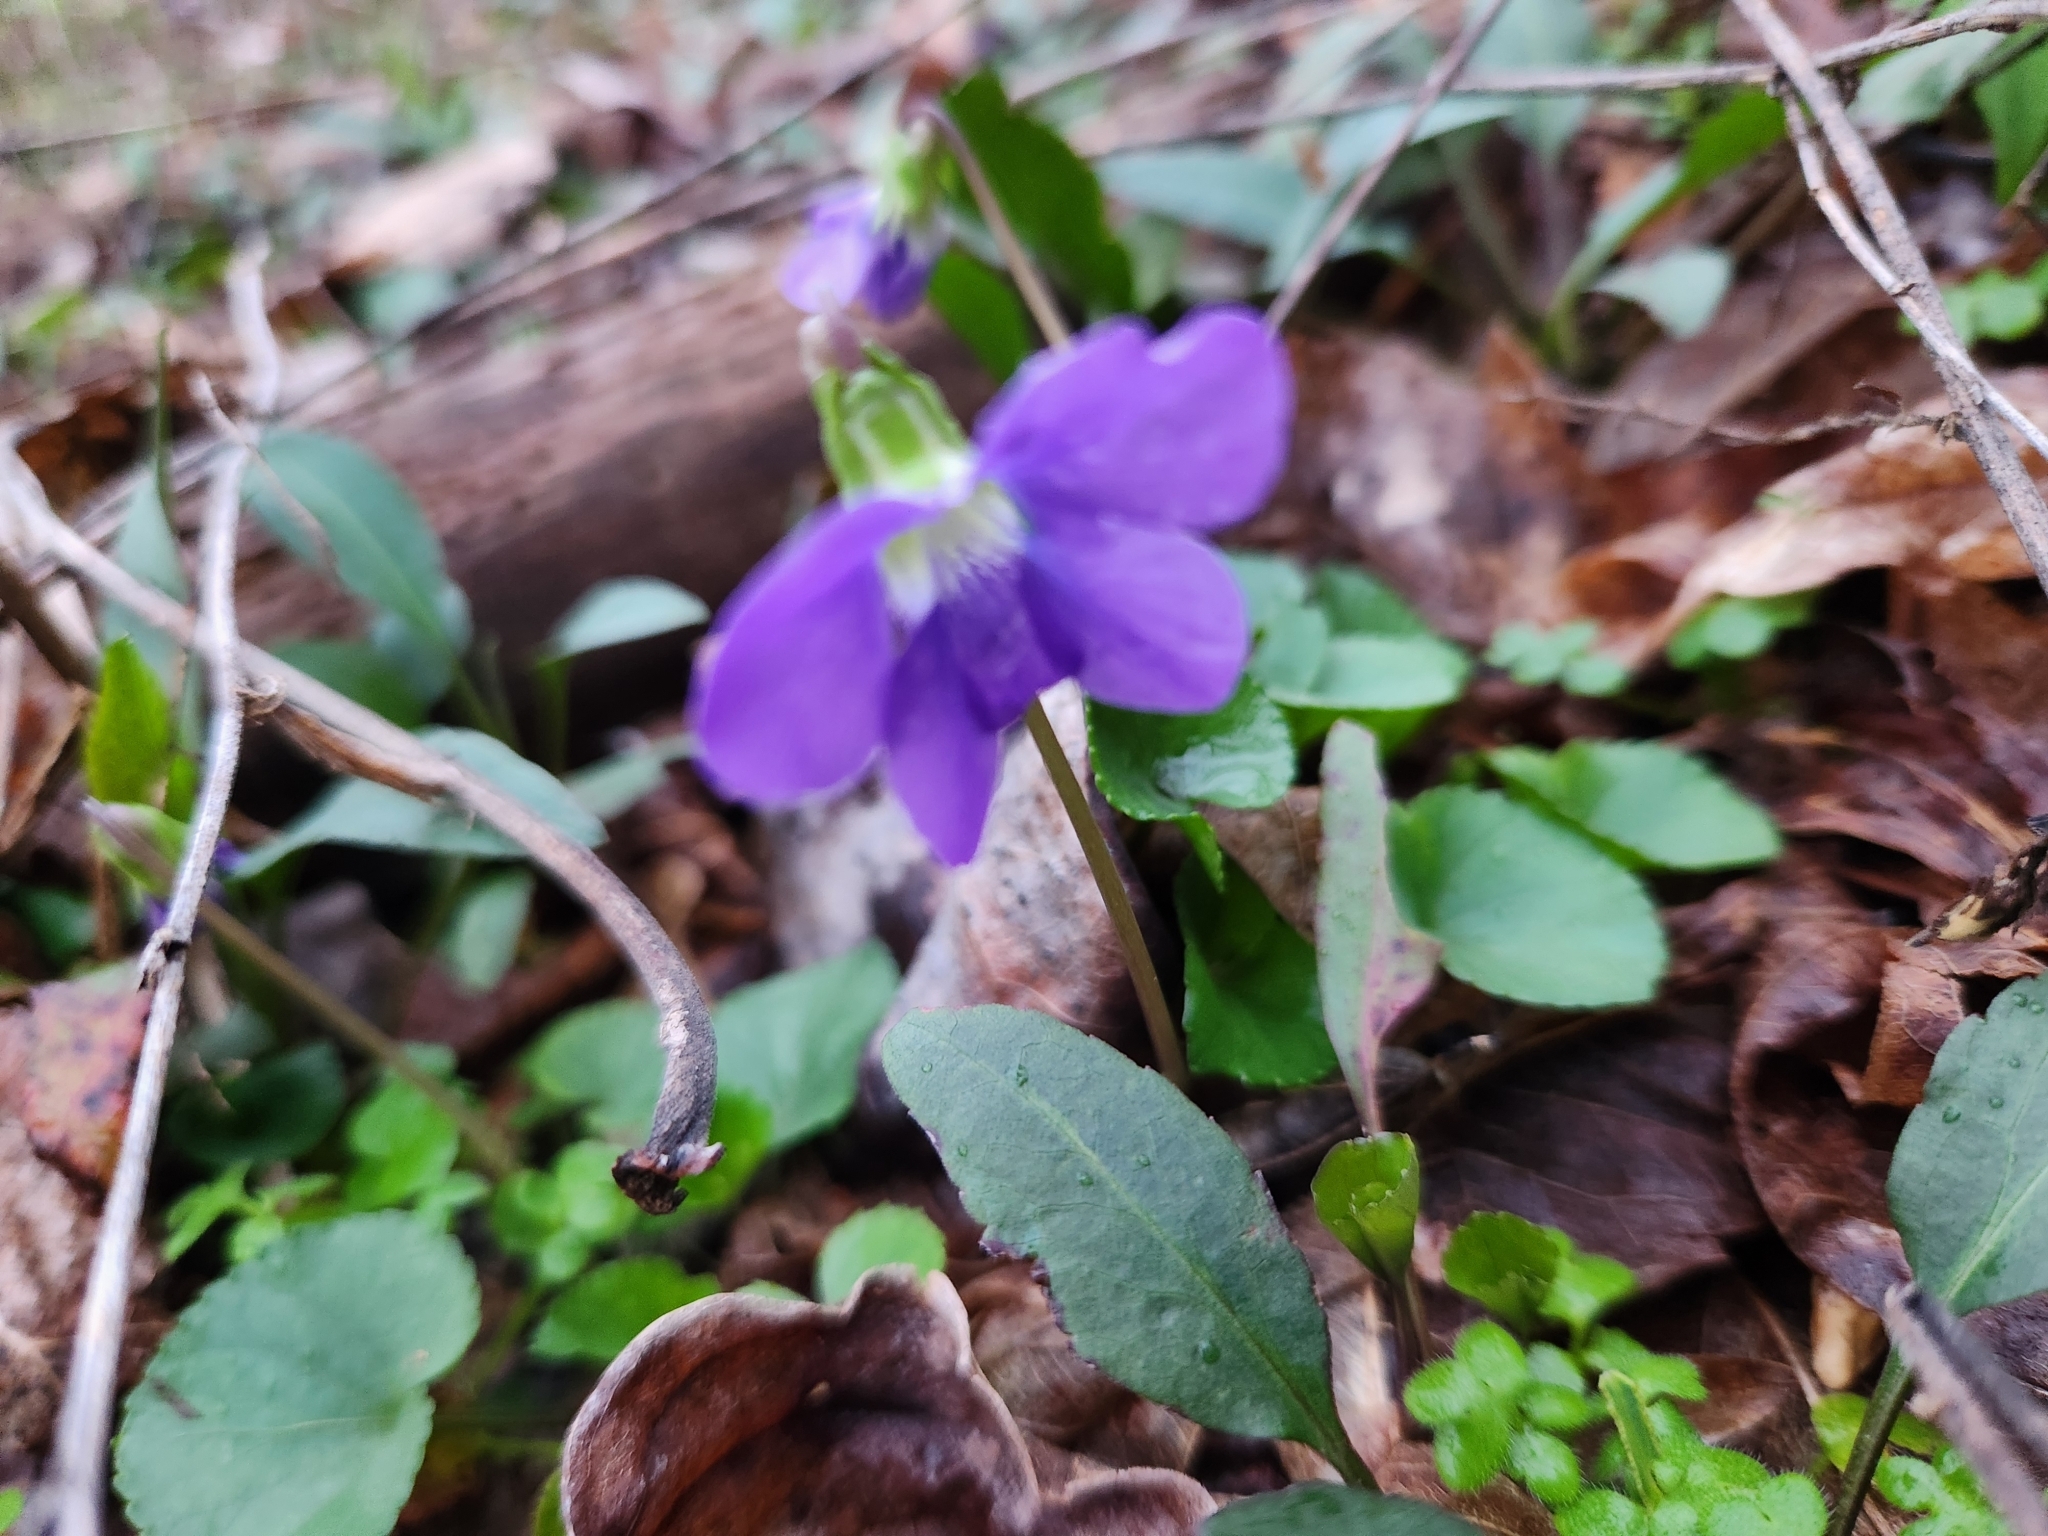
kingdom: Plantae
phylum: Tracheophyta
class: Magnoliopsida
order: Malpighiales
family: Violaceae
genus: Viola
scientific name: Viola sororia
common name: Dooryard violet
